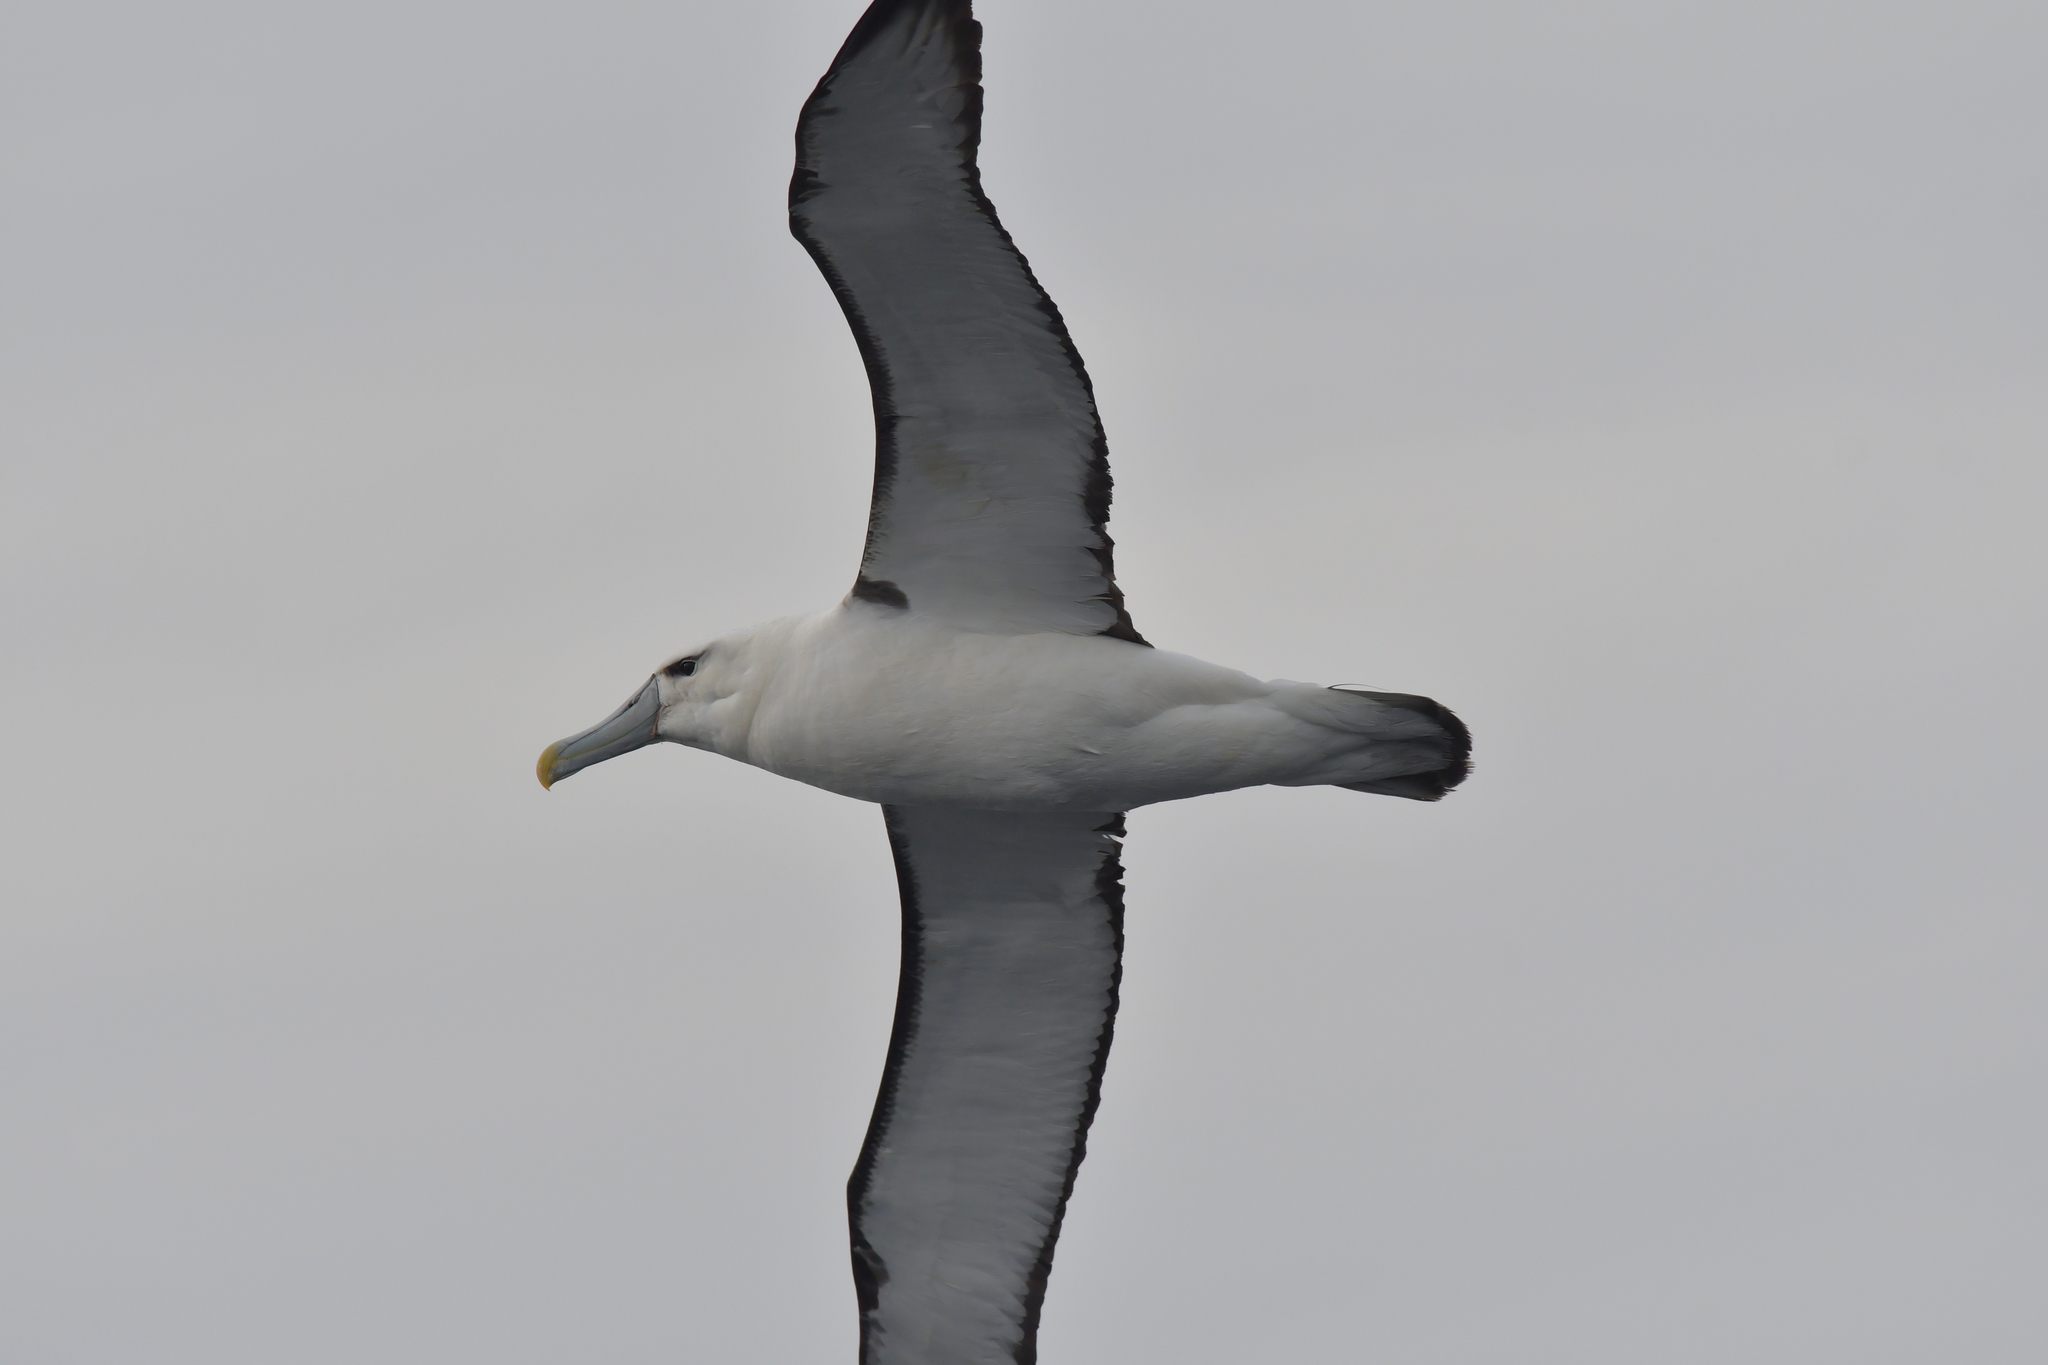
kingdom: Animalia
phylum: Chordata
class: Aves
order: Procellariiformes
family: Diomedeidae
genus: Thalassarche
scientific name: Thalassarche cauta
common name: Shy albatross
